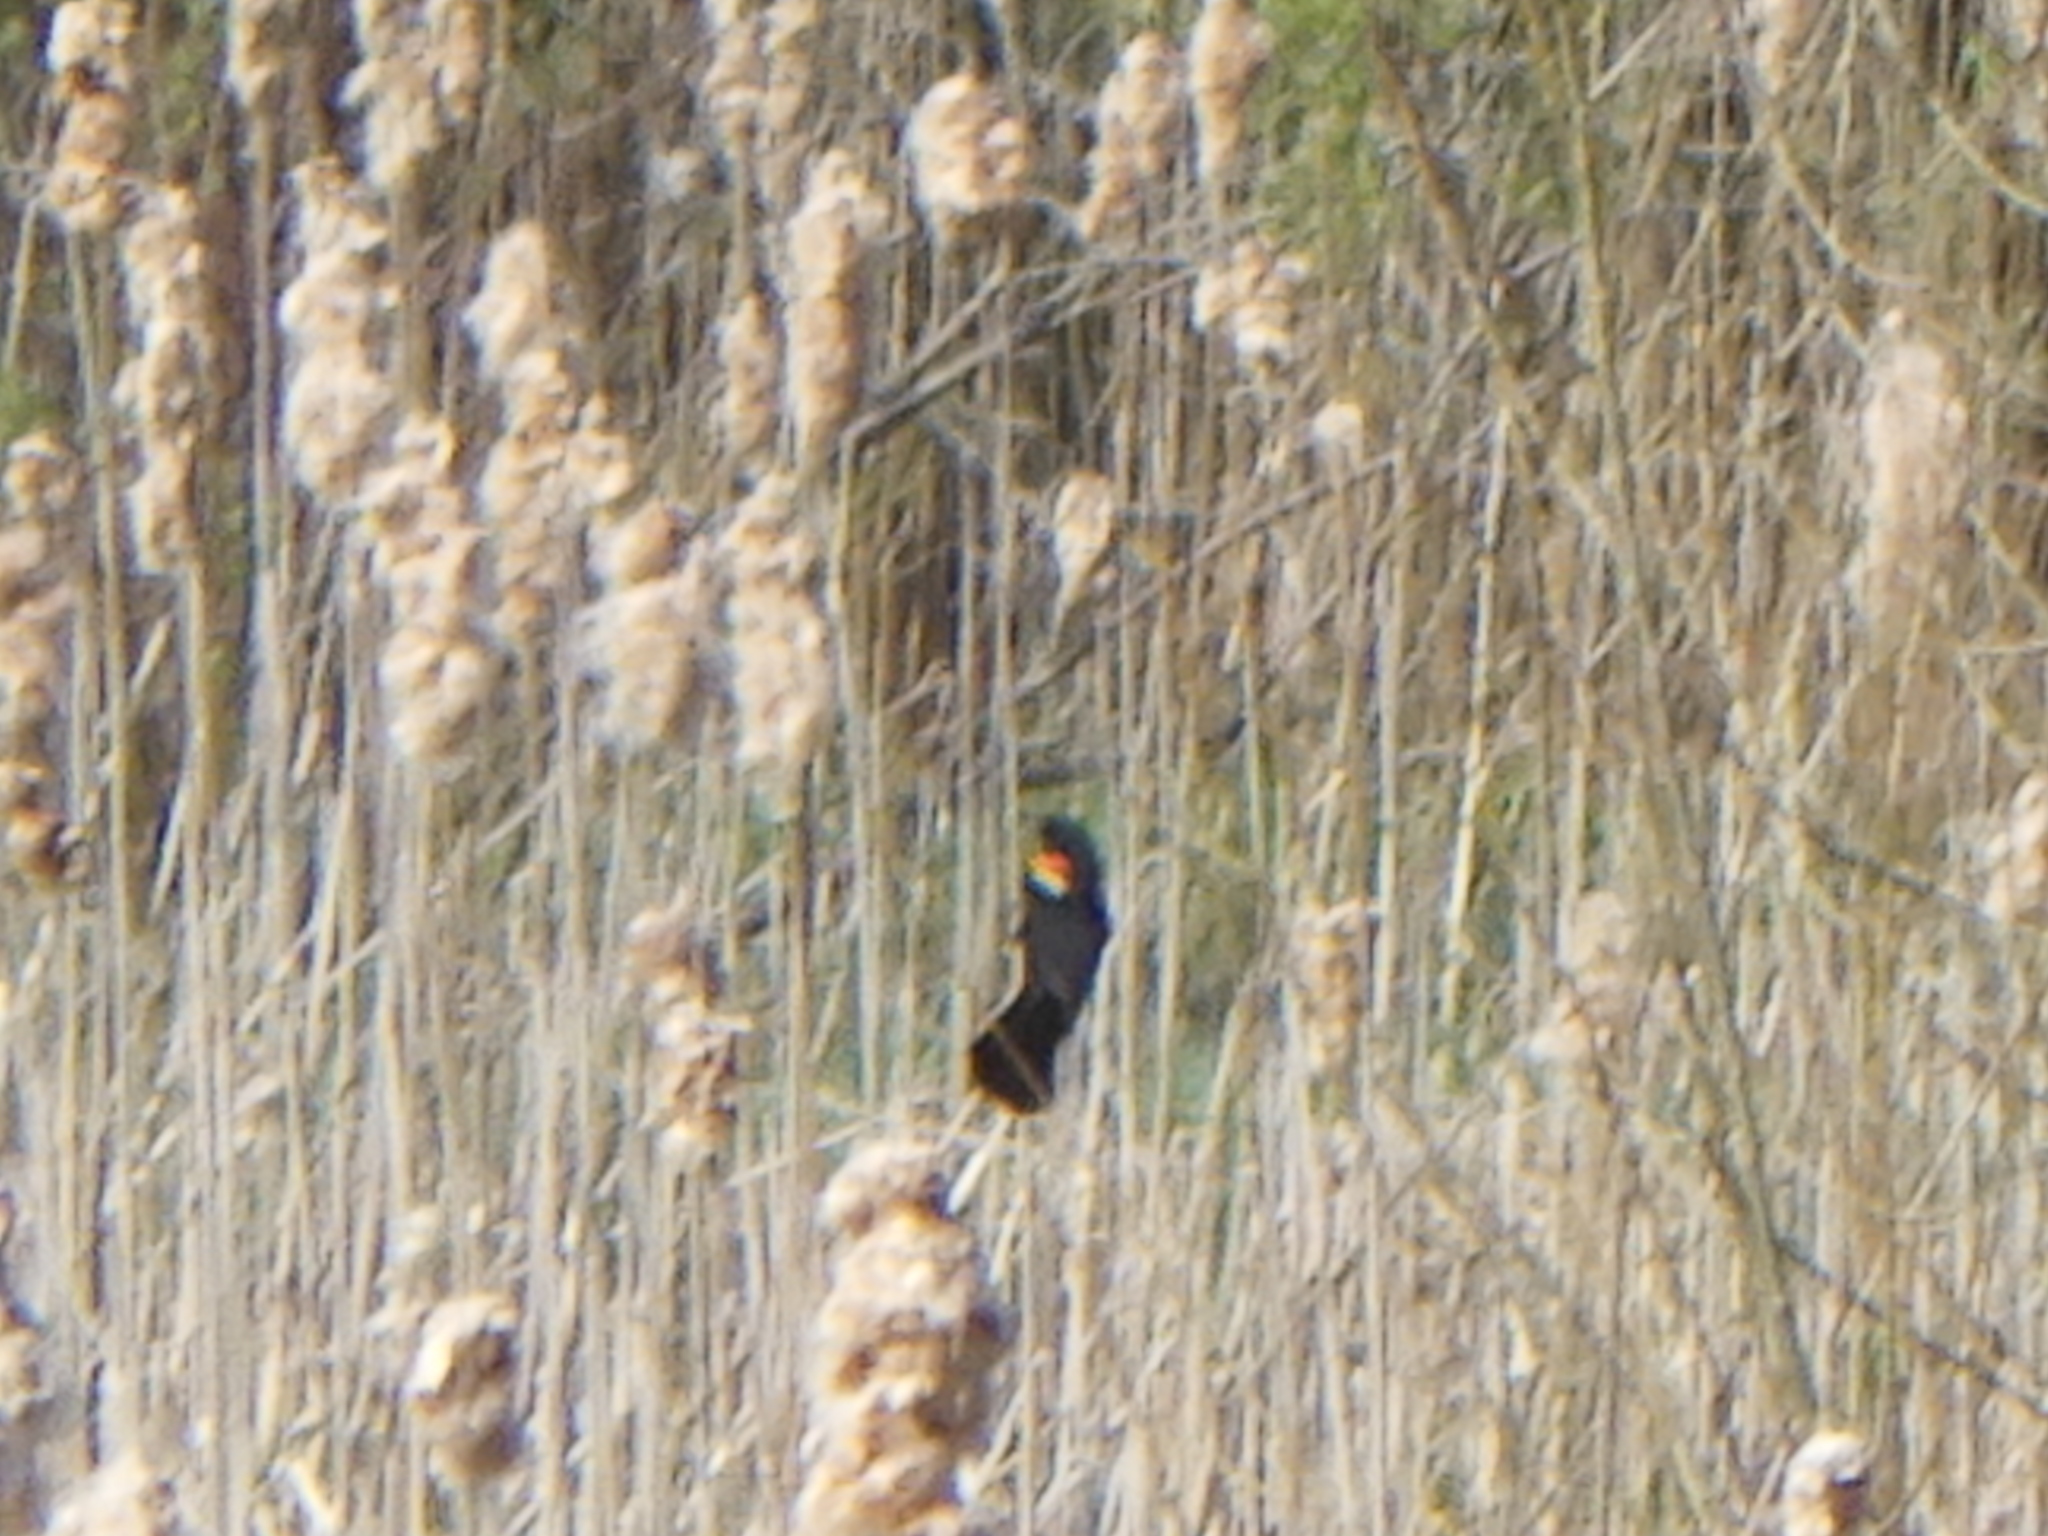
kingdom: Animalia
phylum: Chordata
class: Aves
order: Passeriformes
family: Icteridae
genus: Agelaius
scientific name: Agelaius phoeniceus
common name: Red-winged blackbird
